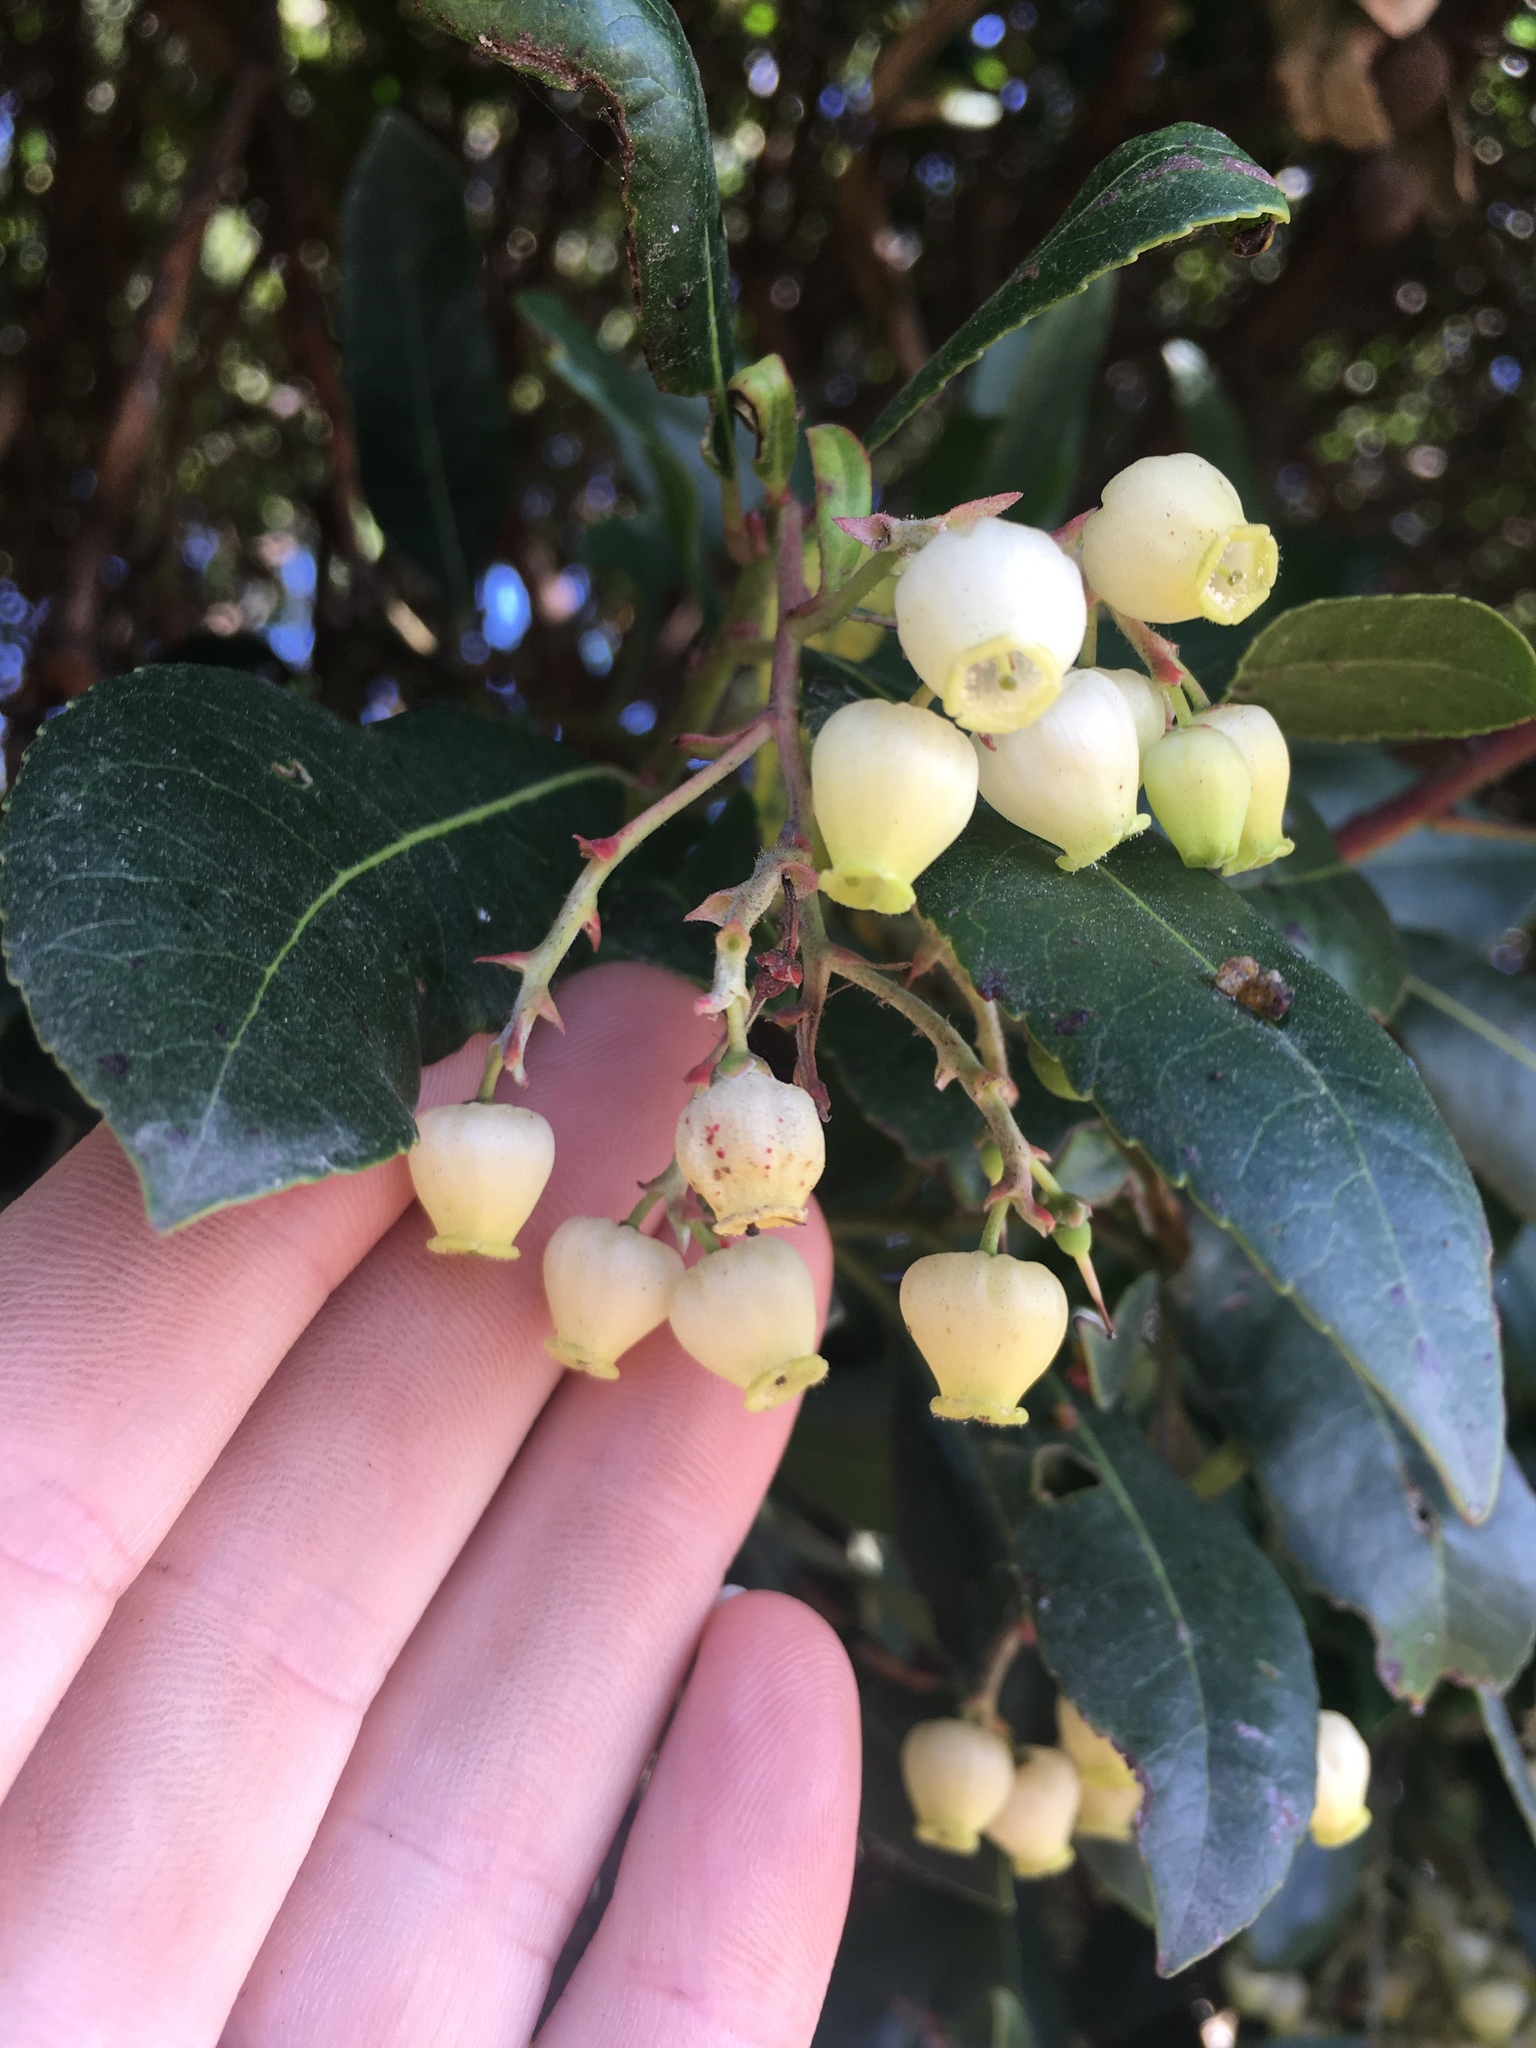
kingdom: Plantae
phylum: Tracheophyta
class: Magnoliopsida
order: Ericales
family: Ericaceae
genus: Arbutus
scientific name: Arbutus unedo
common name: Strawberry-tree
